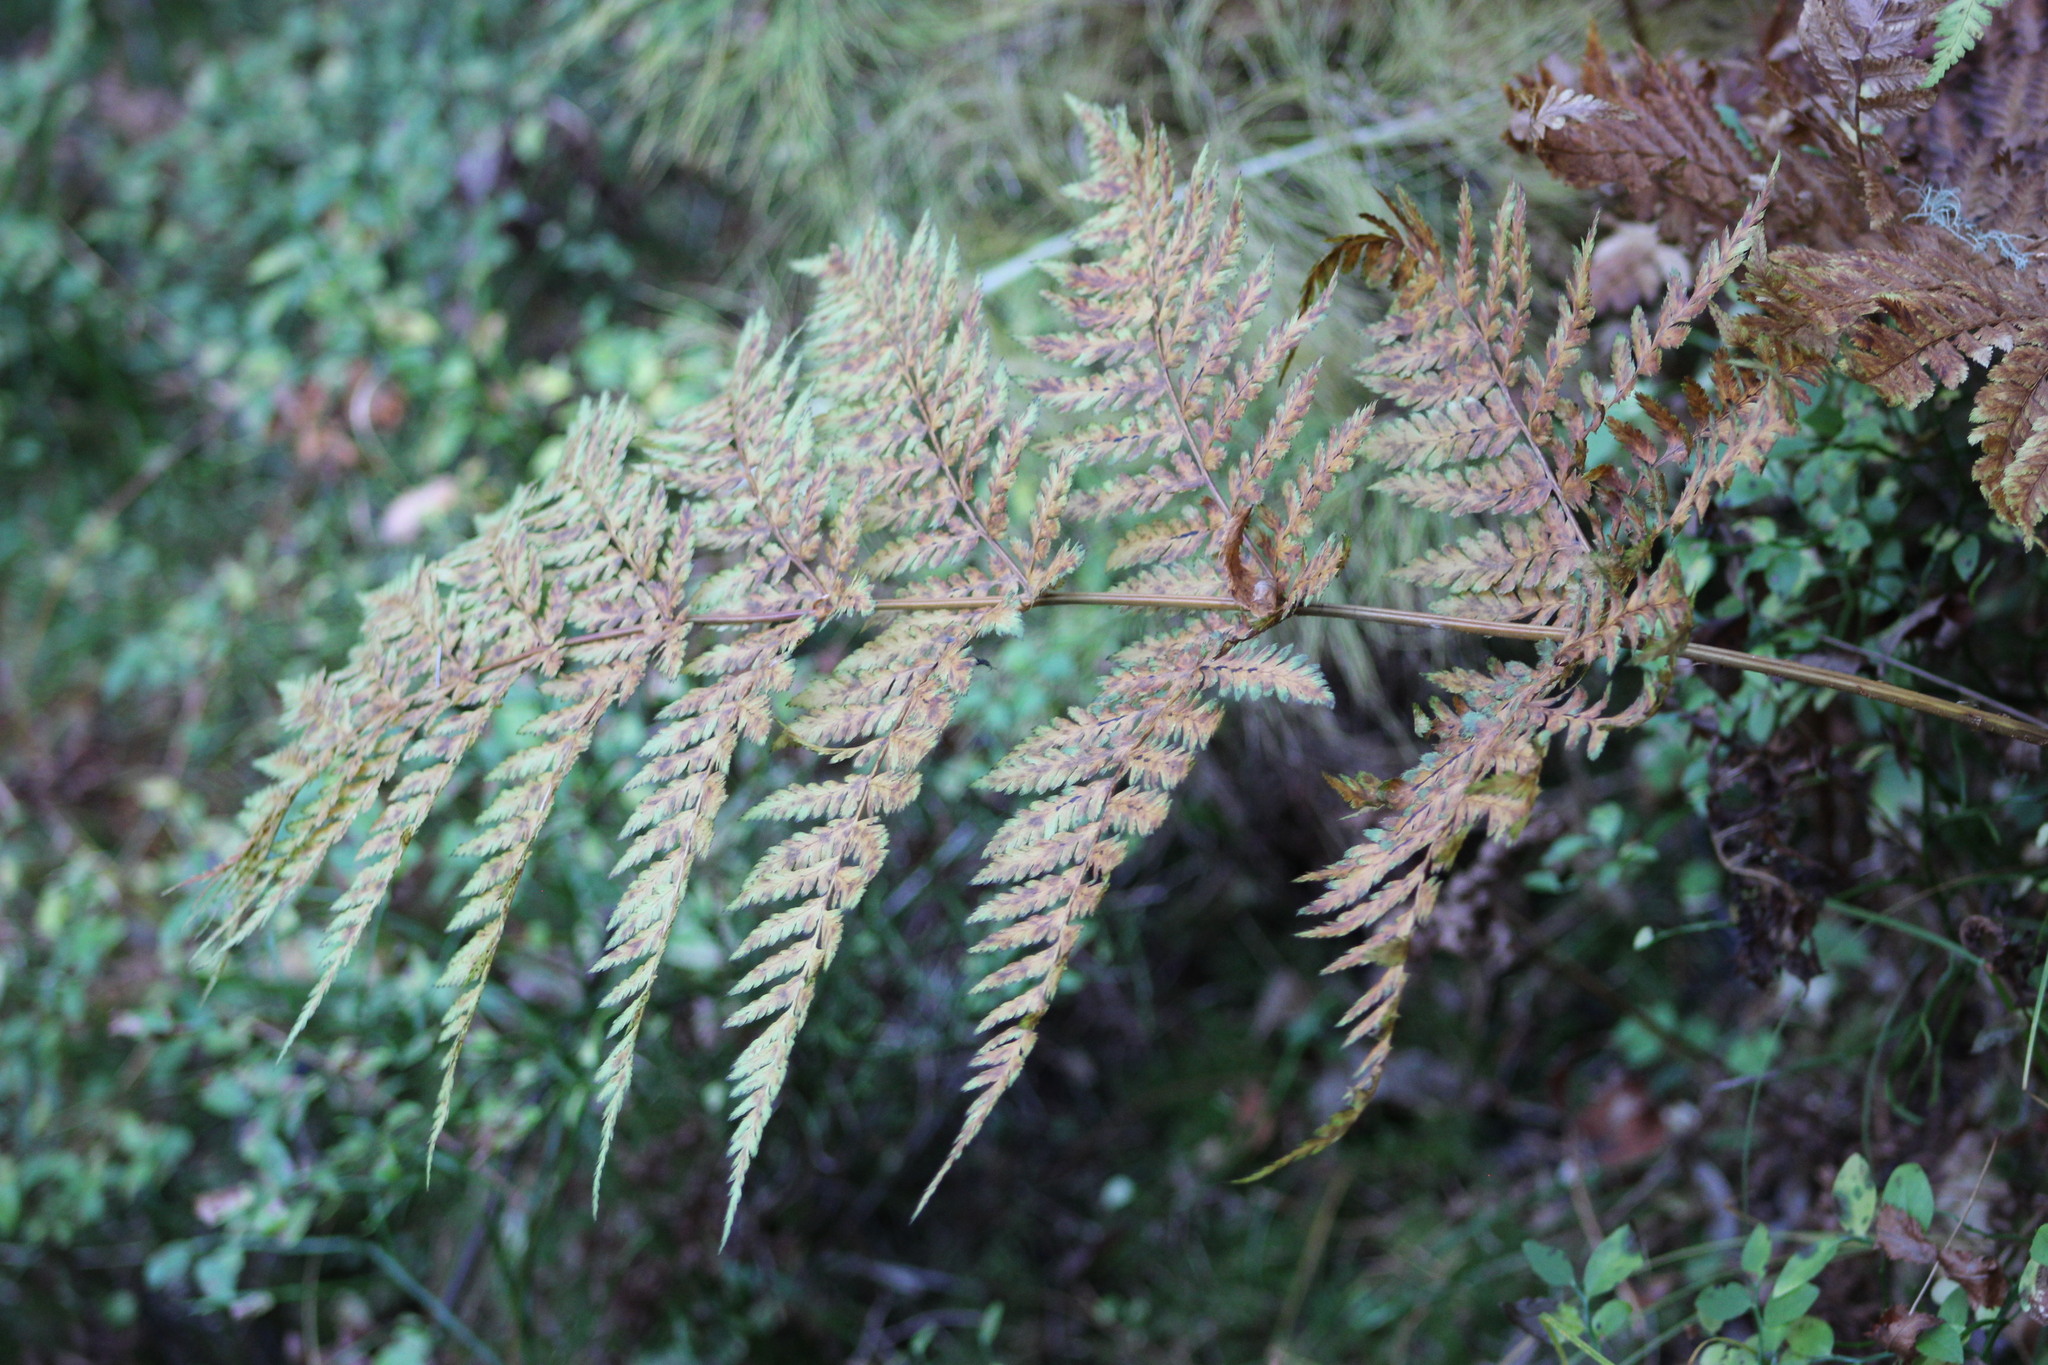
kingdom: Plantae
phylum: Tracheophyta
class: Polypodiopsida
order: Polypodiales
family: Dryopteridaceae
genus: Dryopteris
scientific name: Dryopteris expansa
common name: Northern buckler fern
